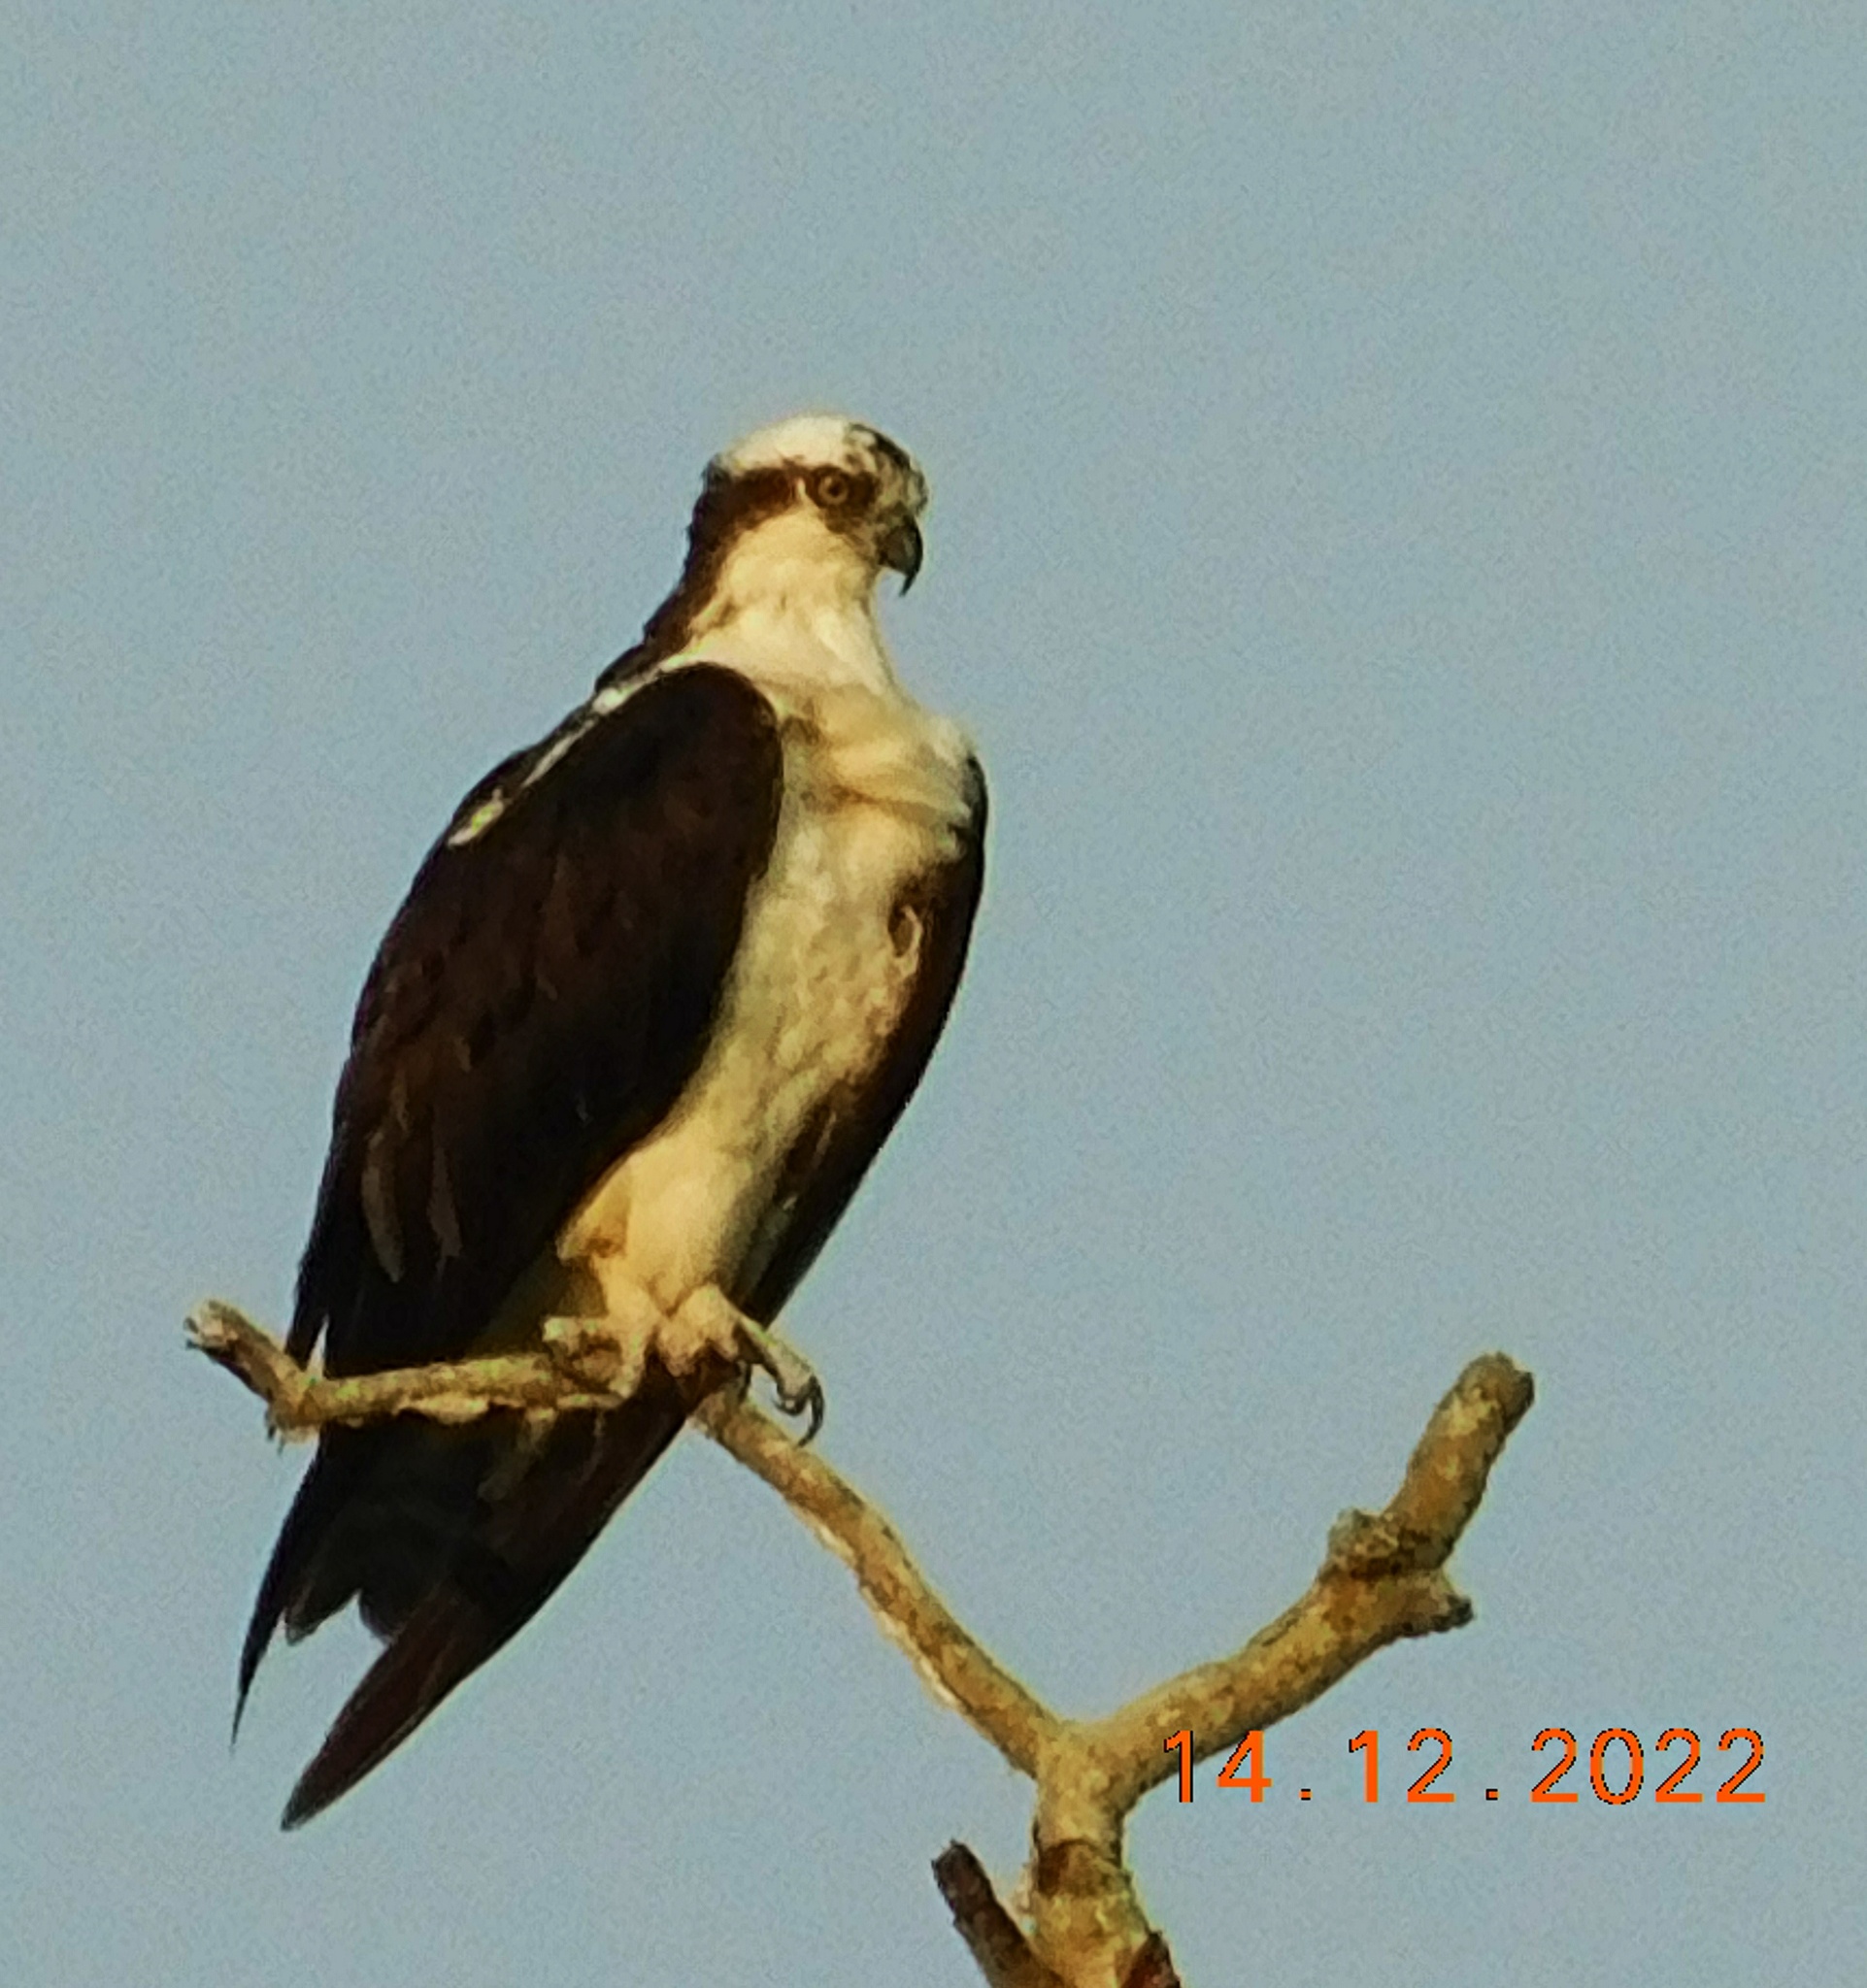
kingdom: Animalia
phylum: Chordata
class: Aves
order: Accipitriformes
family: Pandionidae
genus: Pandion
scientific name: Pandion haliaetus
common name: Osprey
